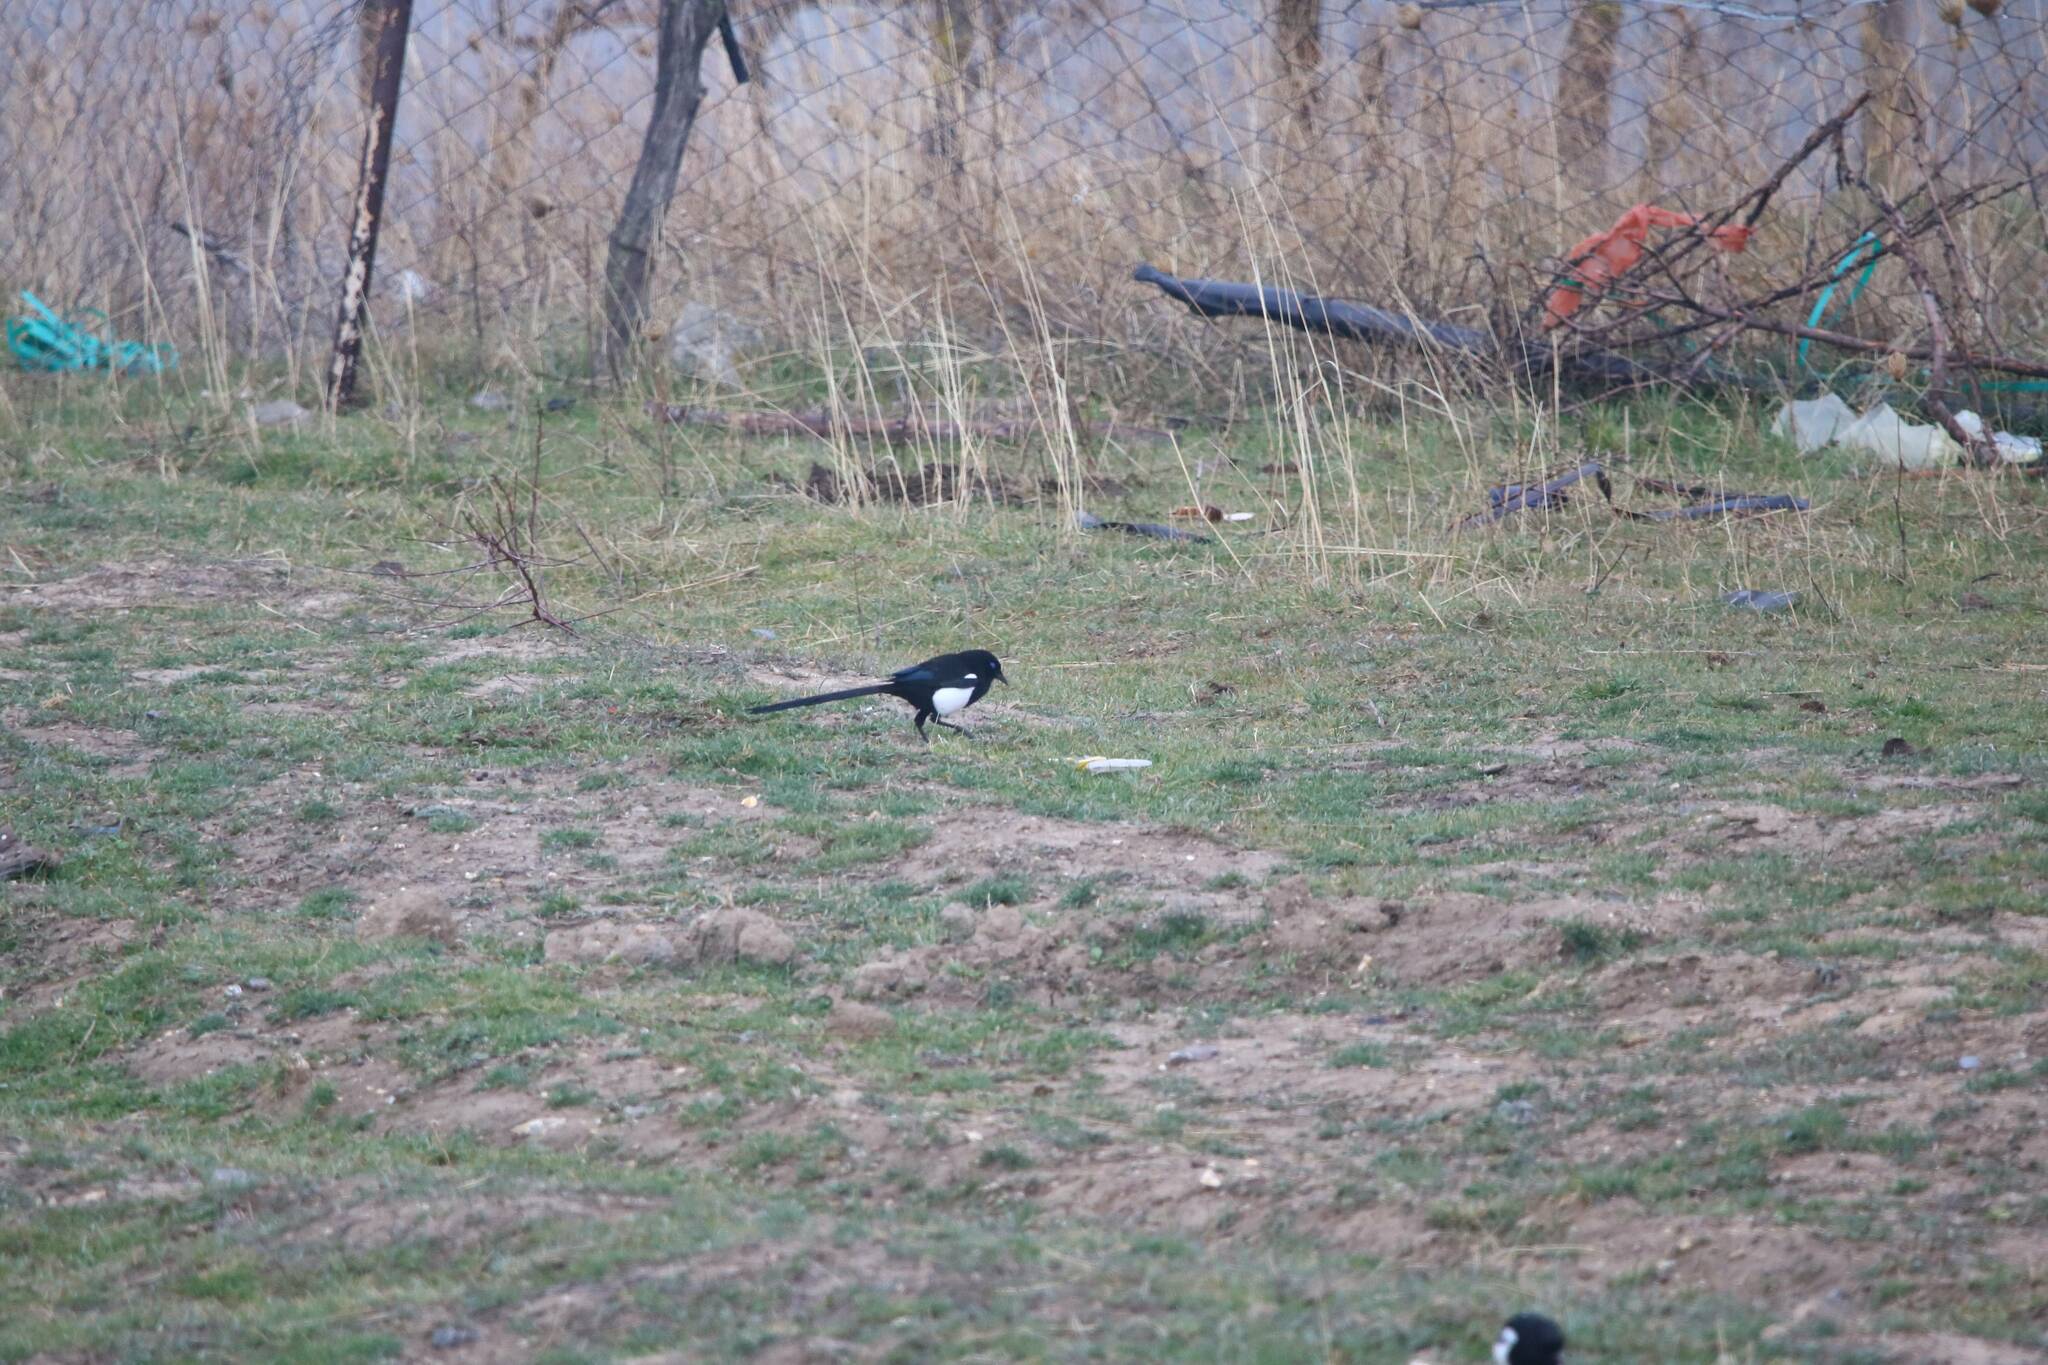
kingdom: Animalia
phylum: Chordata
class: Aves
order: Passeriformes
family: Corvidae
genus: Pica
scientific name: Pica mauritanica
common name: Maghreb magpie
